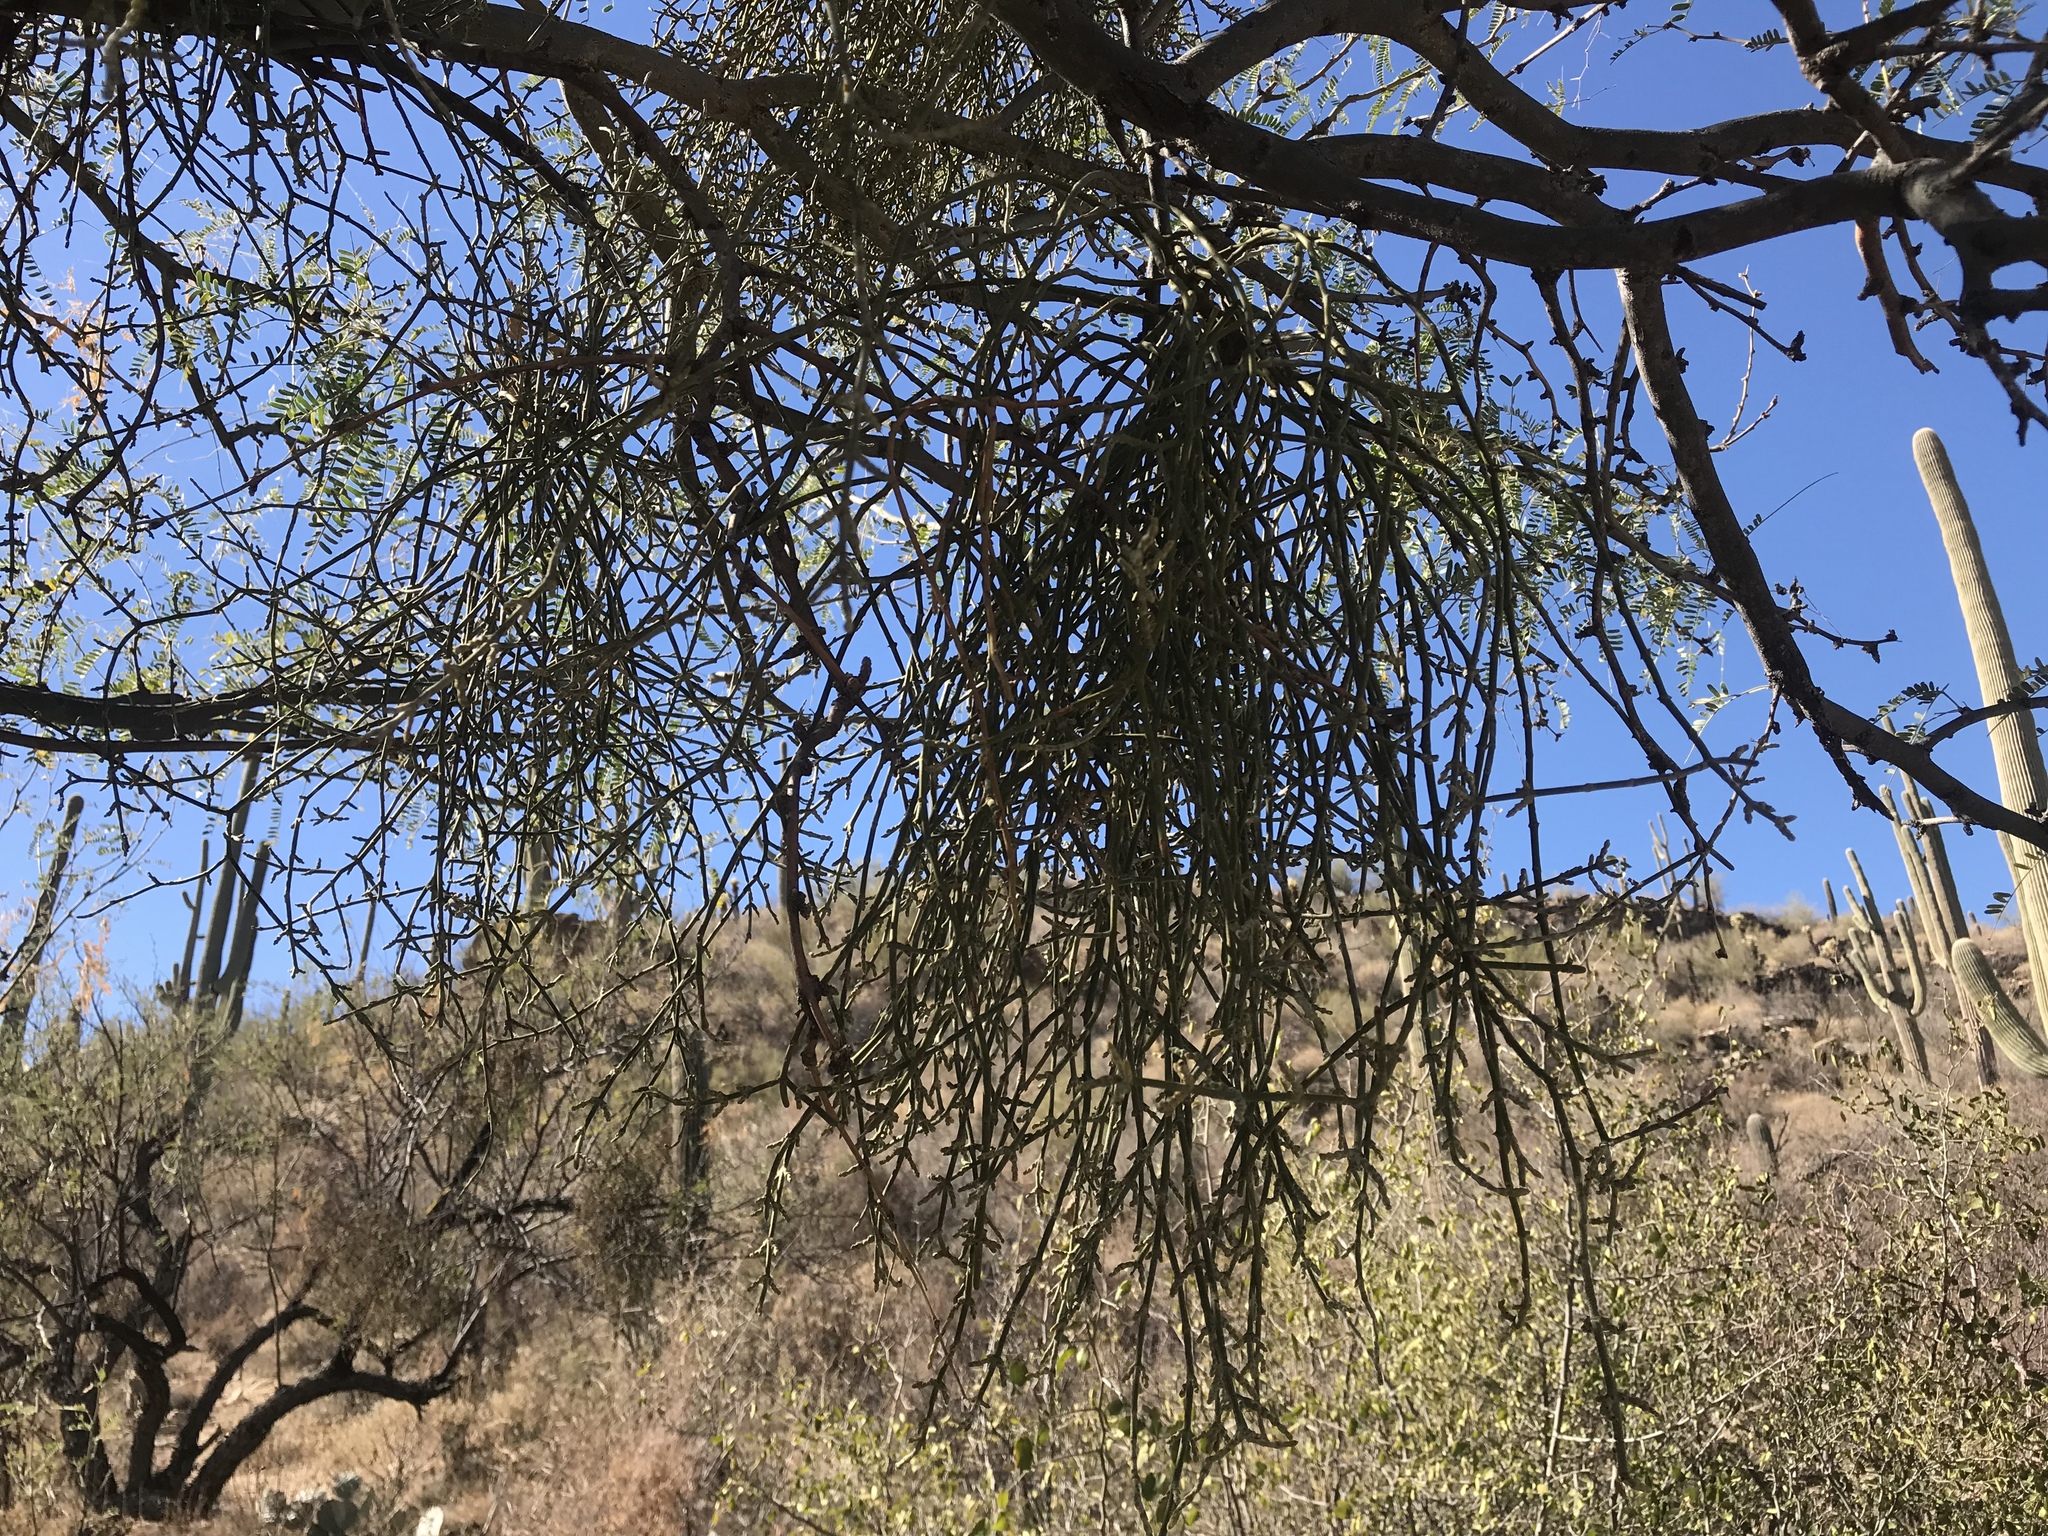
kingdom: Plantae
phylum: Tracheophyta
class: Magnoliopsida
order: Santalales
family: Viscaceae
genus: Phoradendron
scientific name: Phoradendron californicum
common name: Acacia mistletoe
